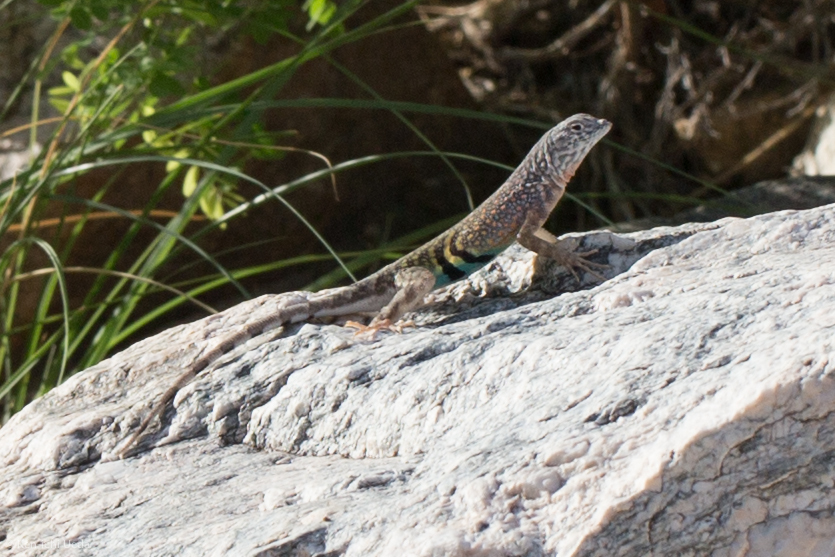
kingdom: Animalia
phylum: Chordata
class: Squamata
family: Phrynosomatidae
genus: Cophosaurus
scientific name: Cophosaurus texanus
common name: Greater earless lizard
